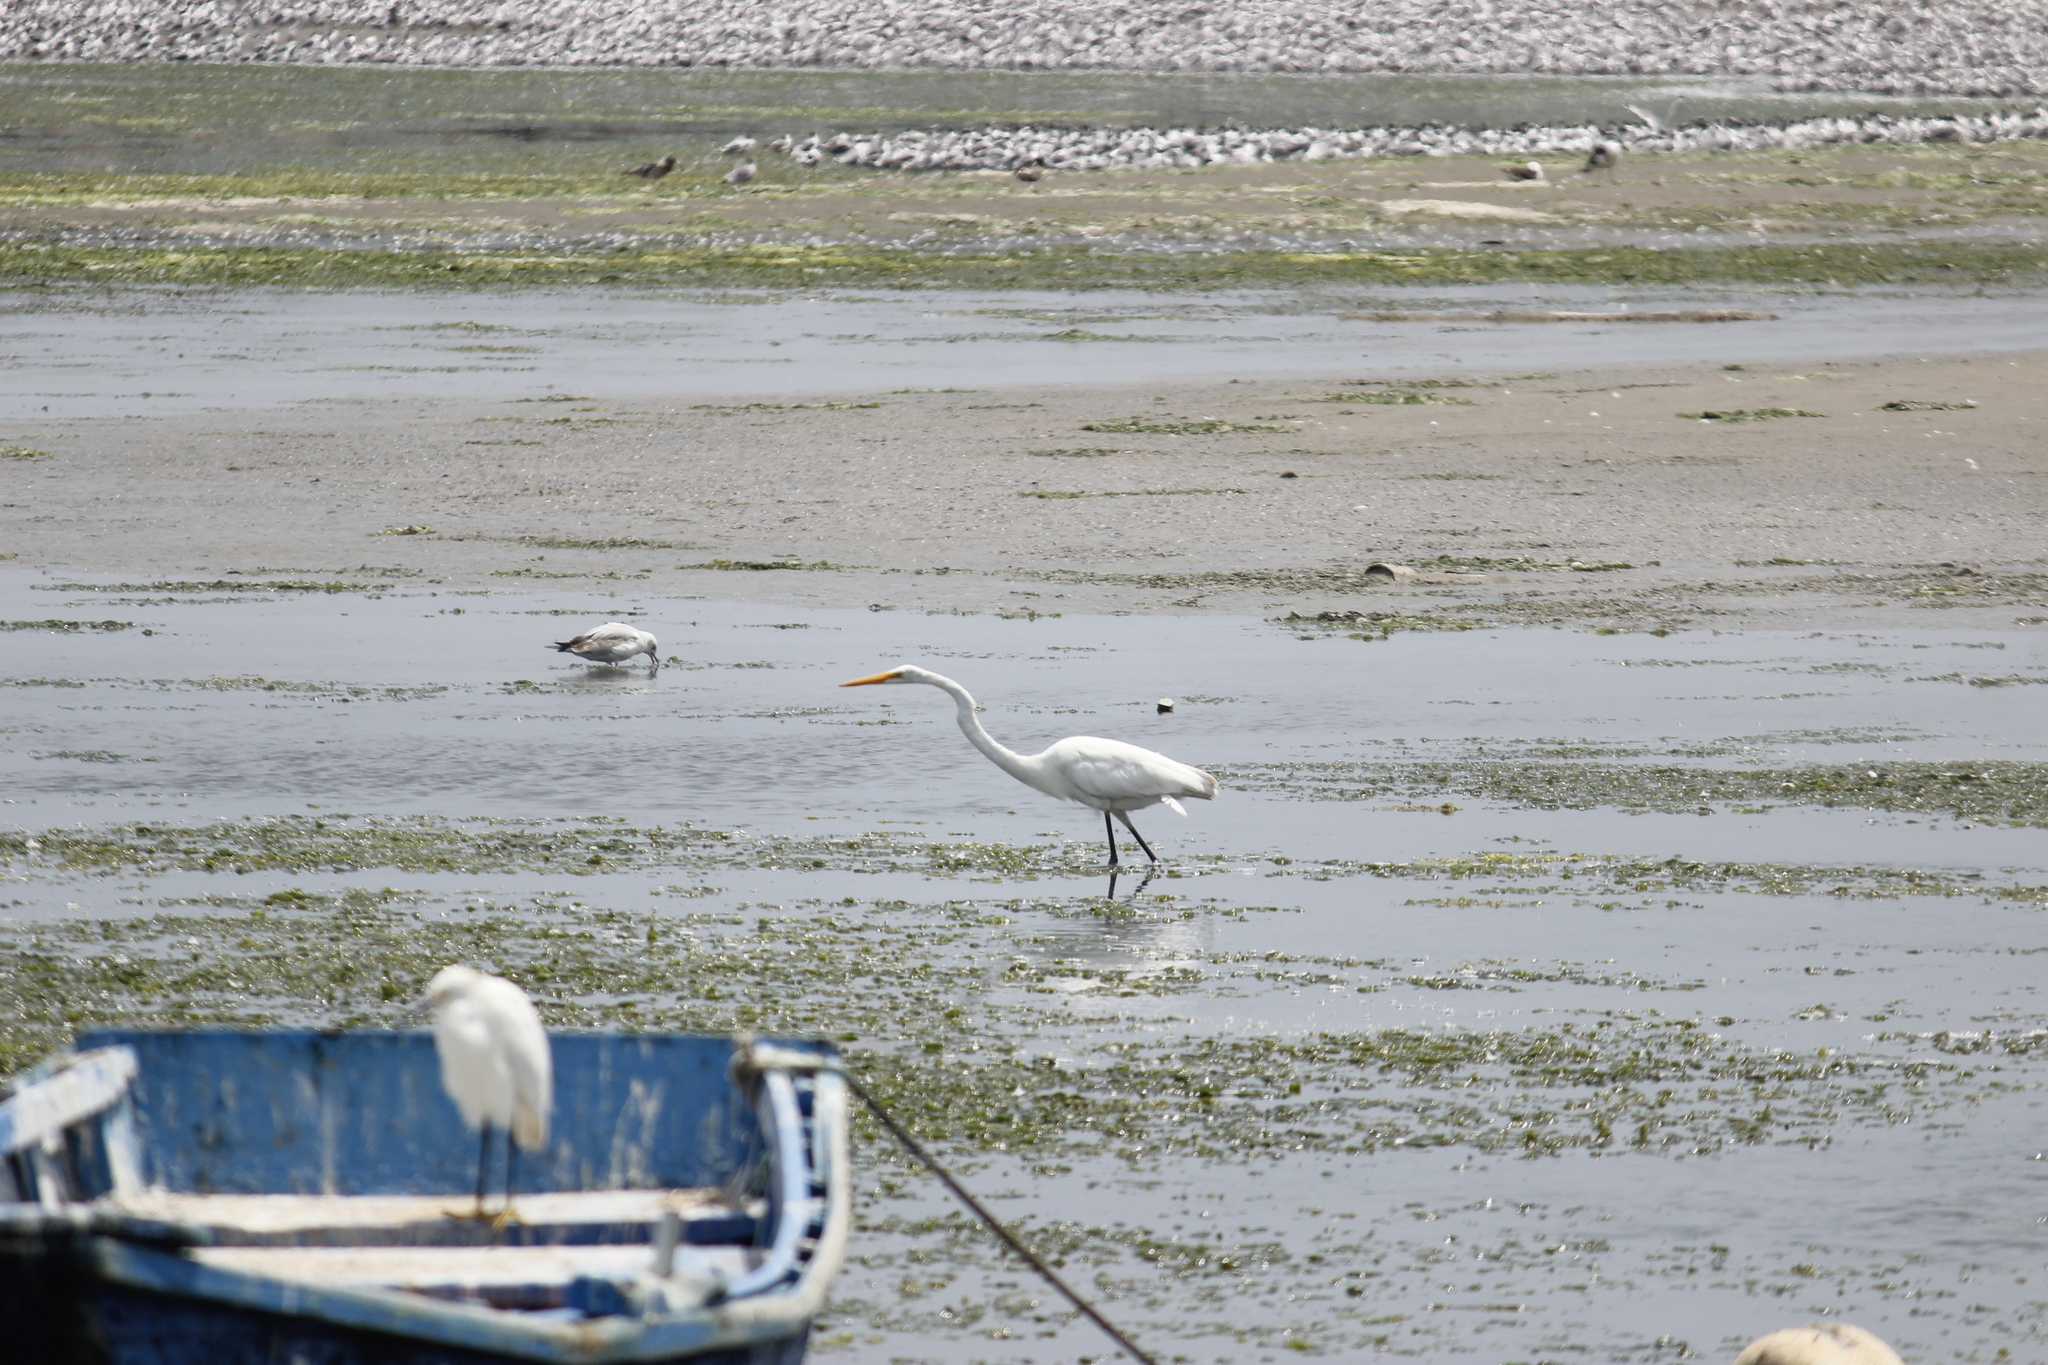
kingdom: Animalia
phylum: Chordata
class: Aves
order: Pelecaniformes
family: Ardeidae
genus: Ardea
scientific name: Ardea alba
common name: Great egret
